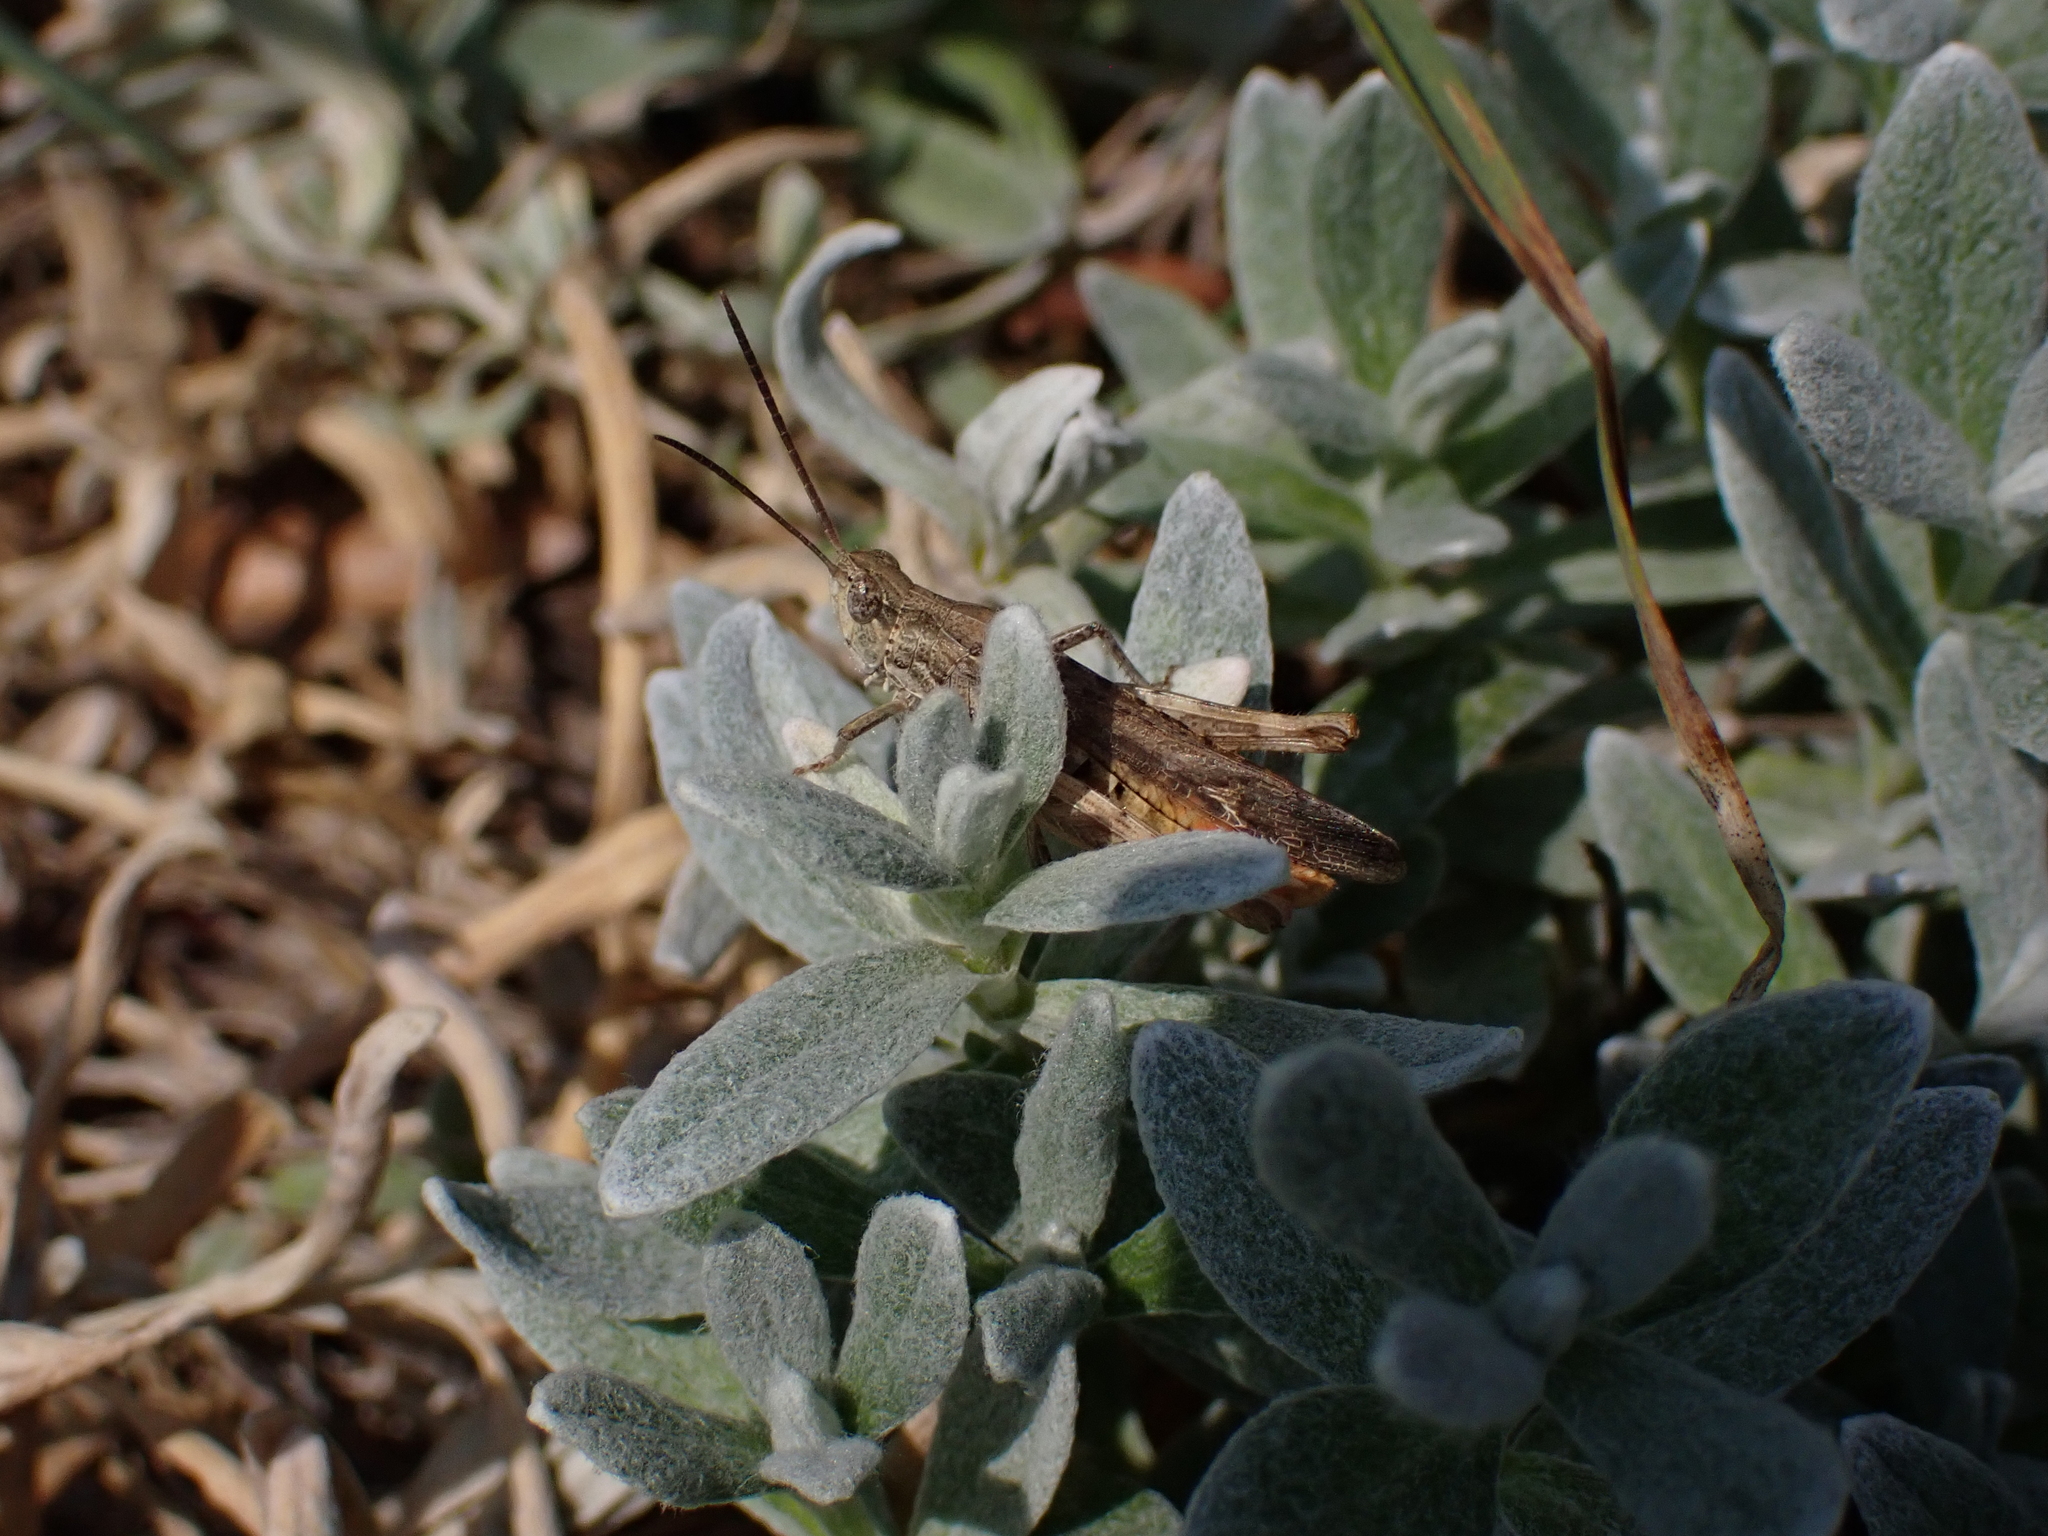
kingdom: Animalia
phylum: Arthropoda
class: Insecta
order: Orthoptera
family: Acrididae
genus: Chorthippus
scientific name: Chorthippus brunneus
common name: Field grasshopper
